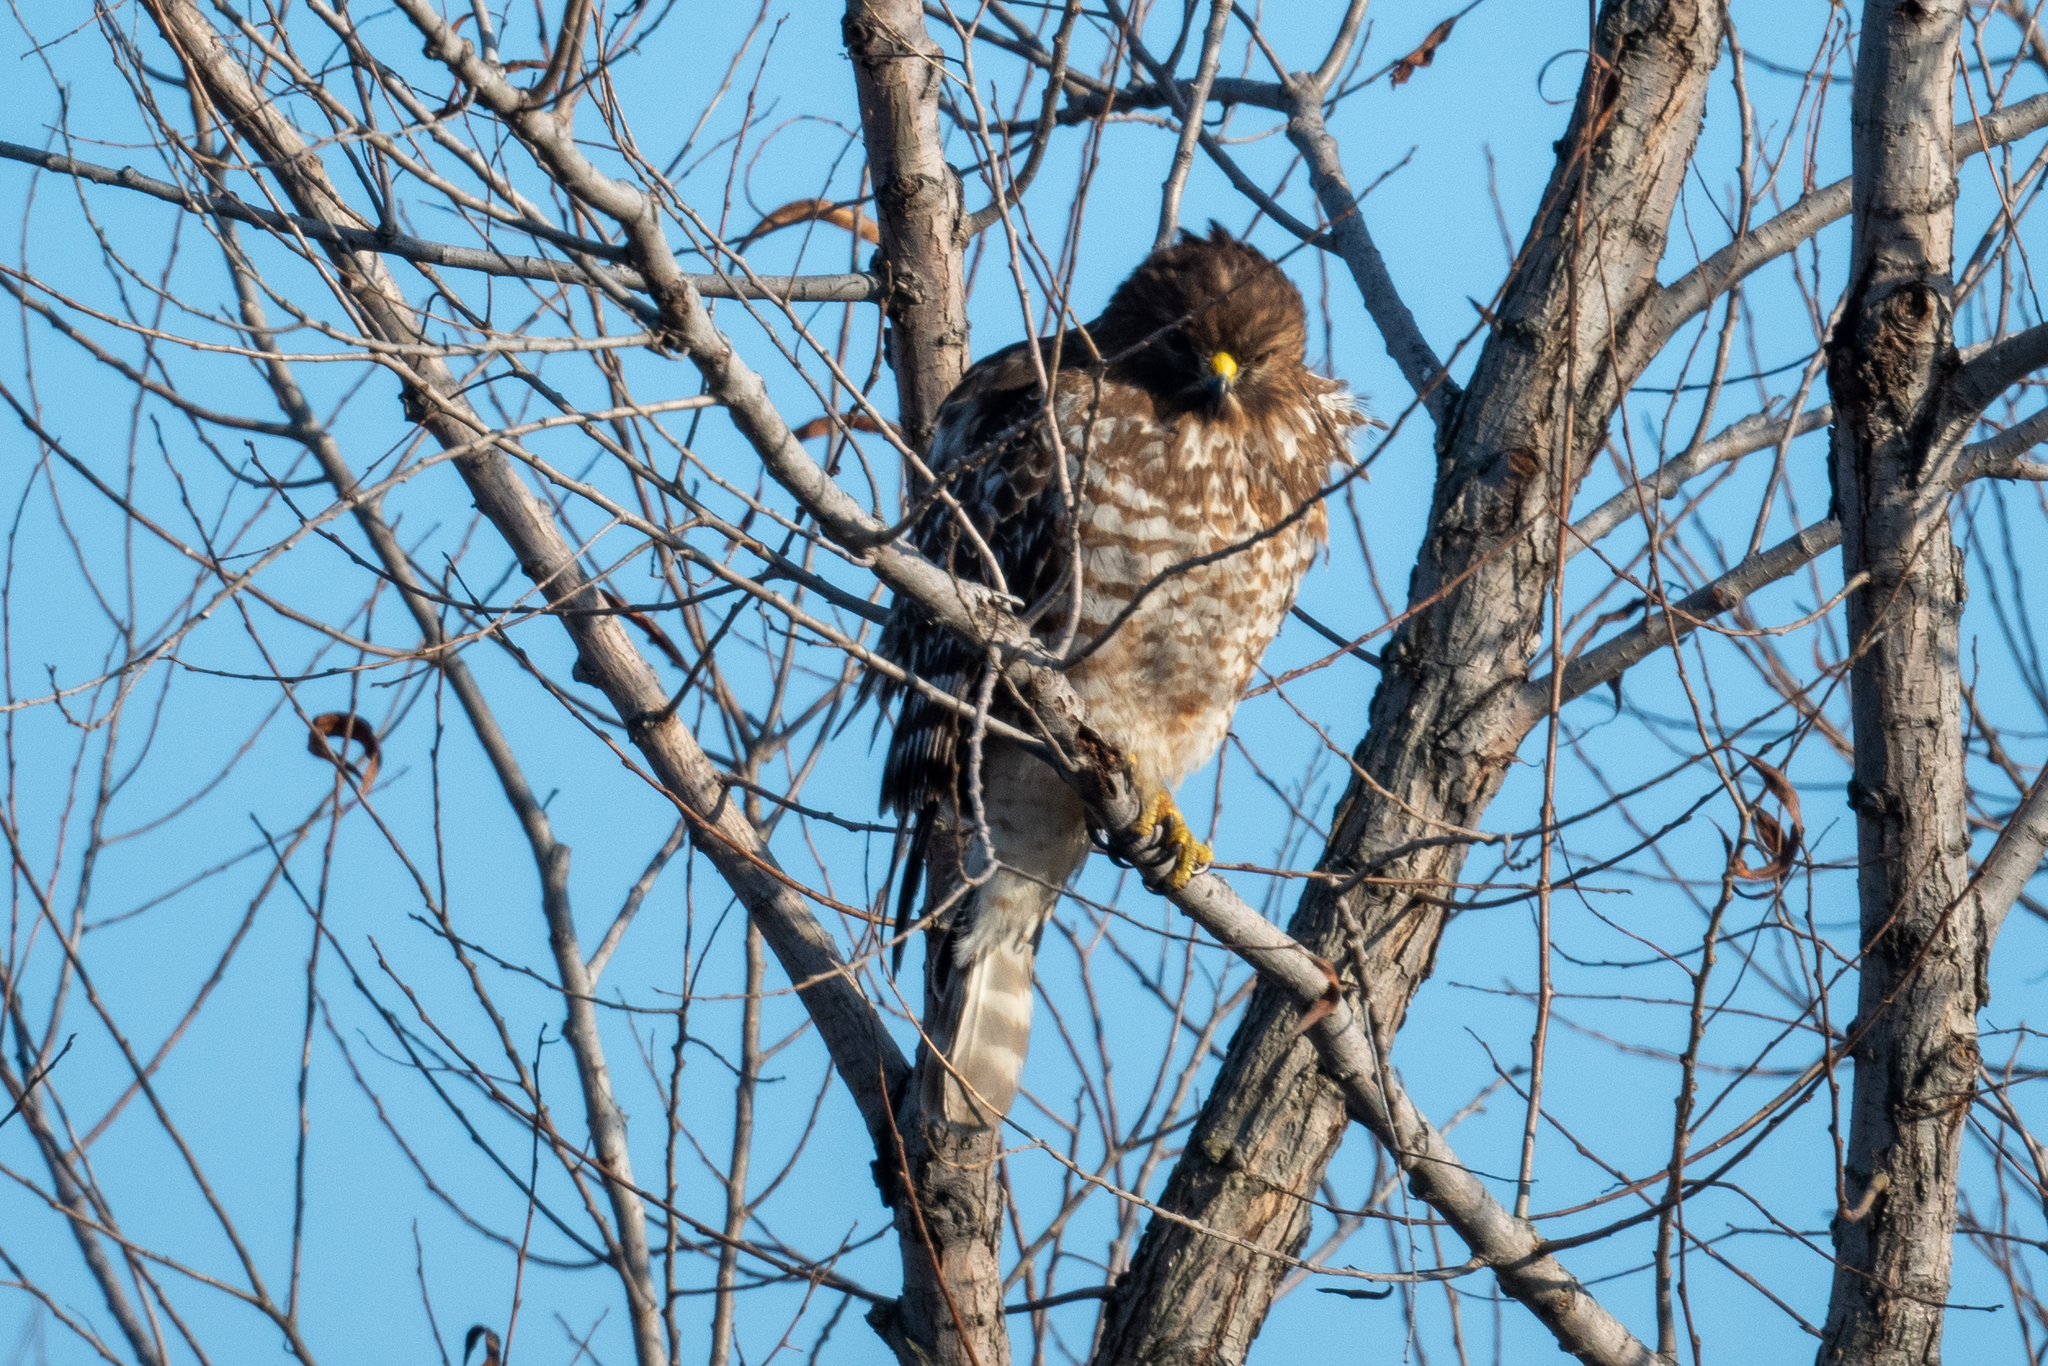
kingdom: Animalia
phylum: Chordata
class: Aves
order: Accipitriformes
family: Accipitridae
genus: Buteo
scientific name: Buteo lineatus
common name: Red-shouldered hawk
